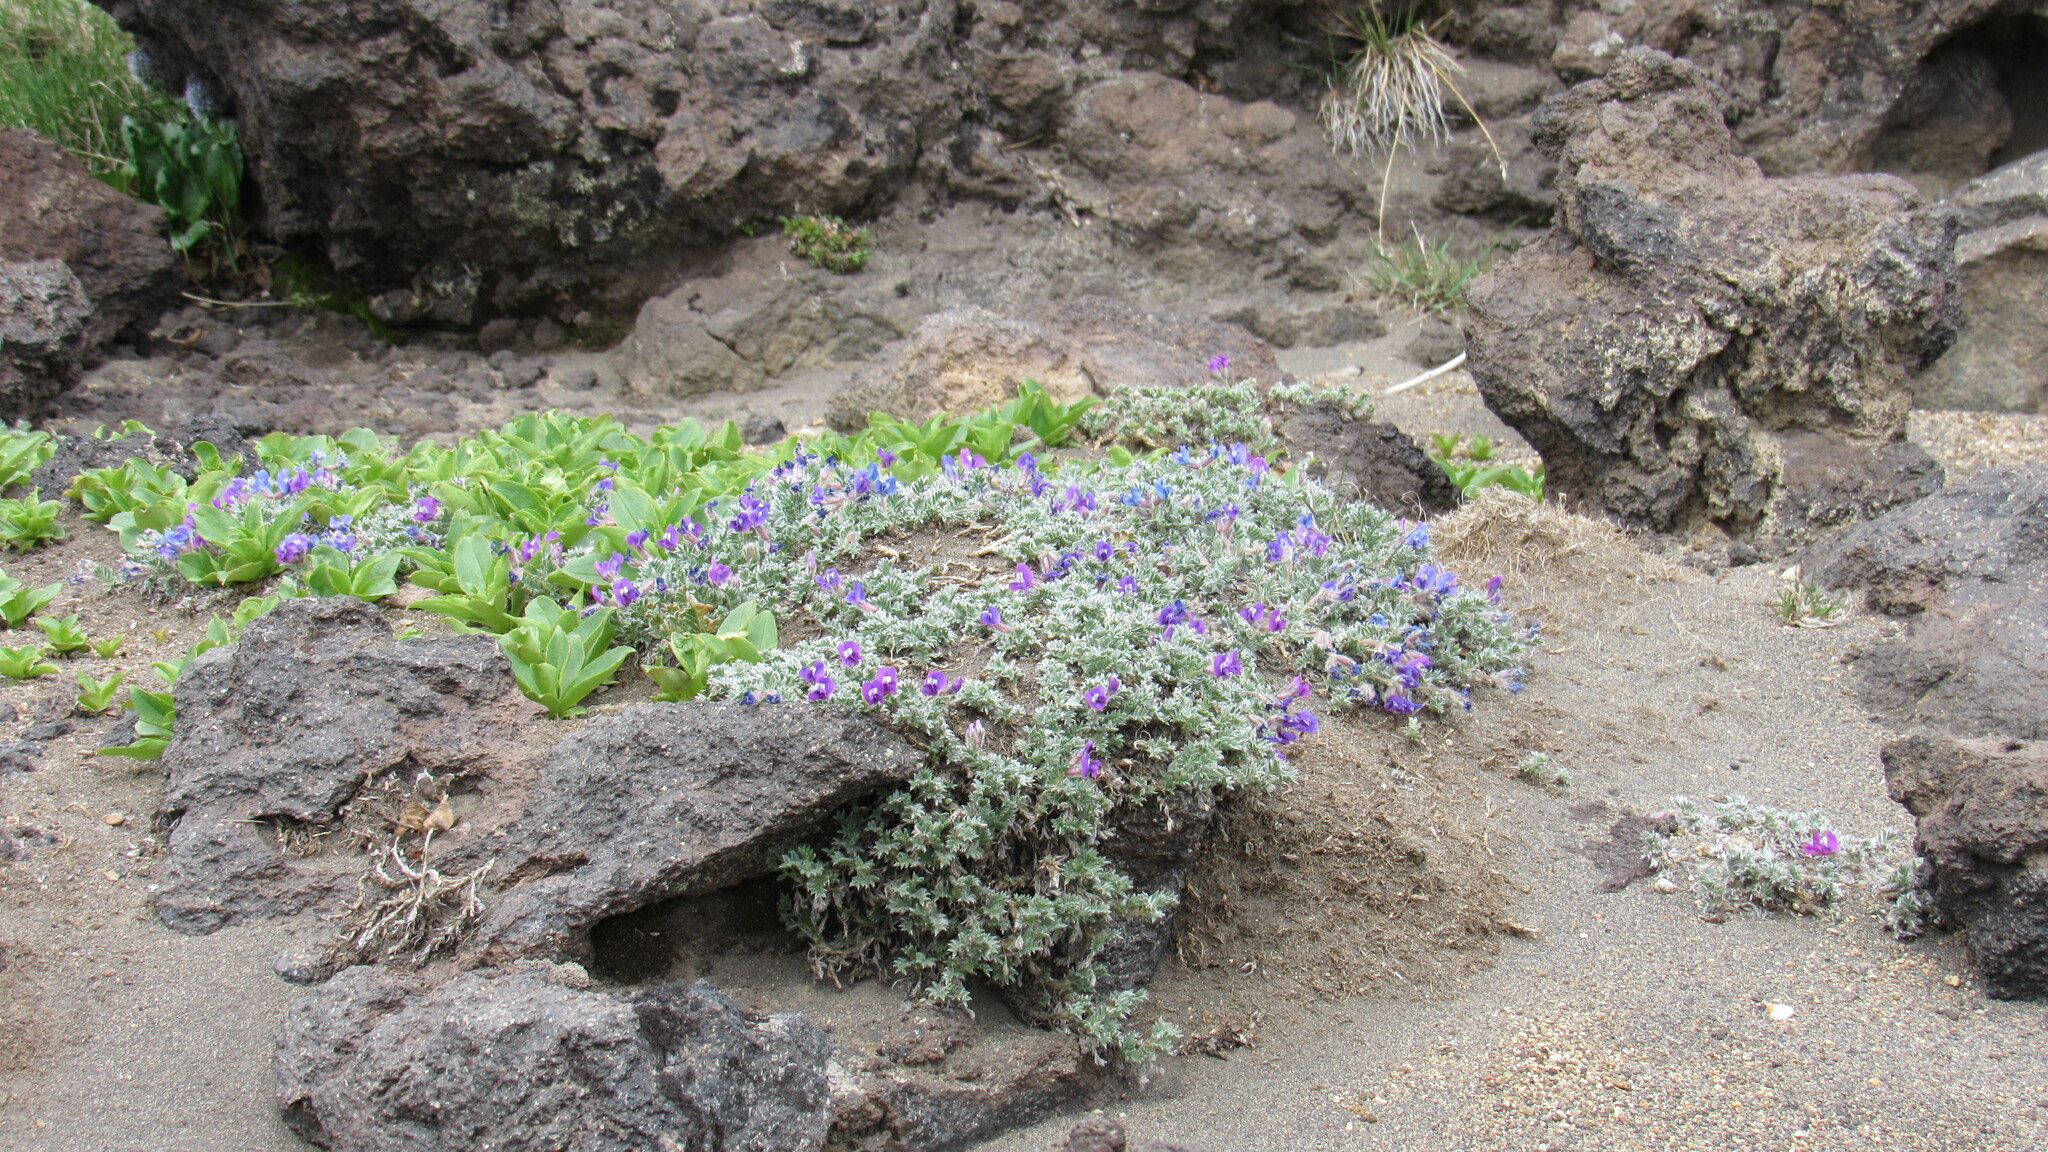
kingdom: Plantae
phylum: Tracheophyta
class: Magnoliopsida
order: Fabales
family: Fabaceae
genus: Oxytropis
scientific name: Oxytropis pumilio
